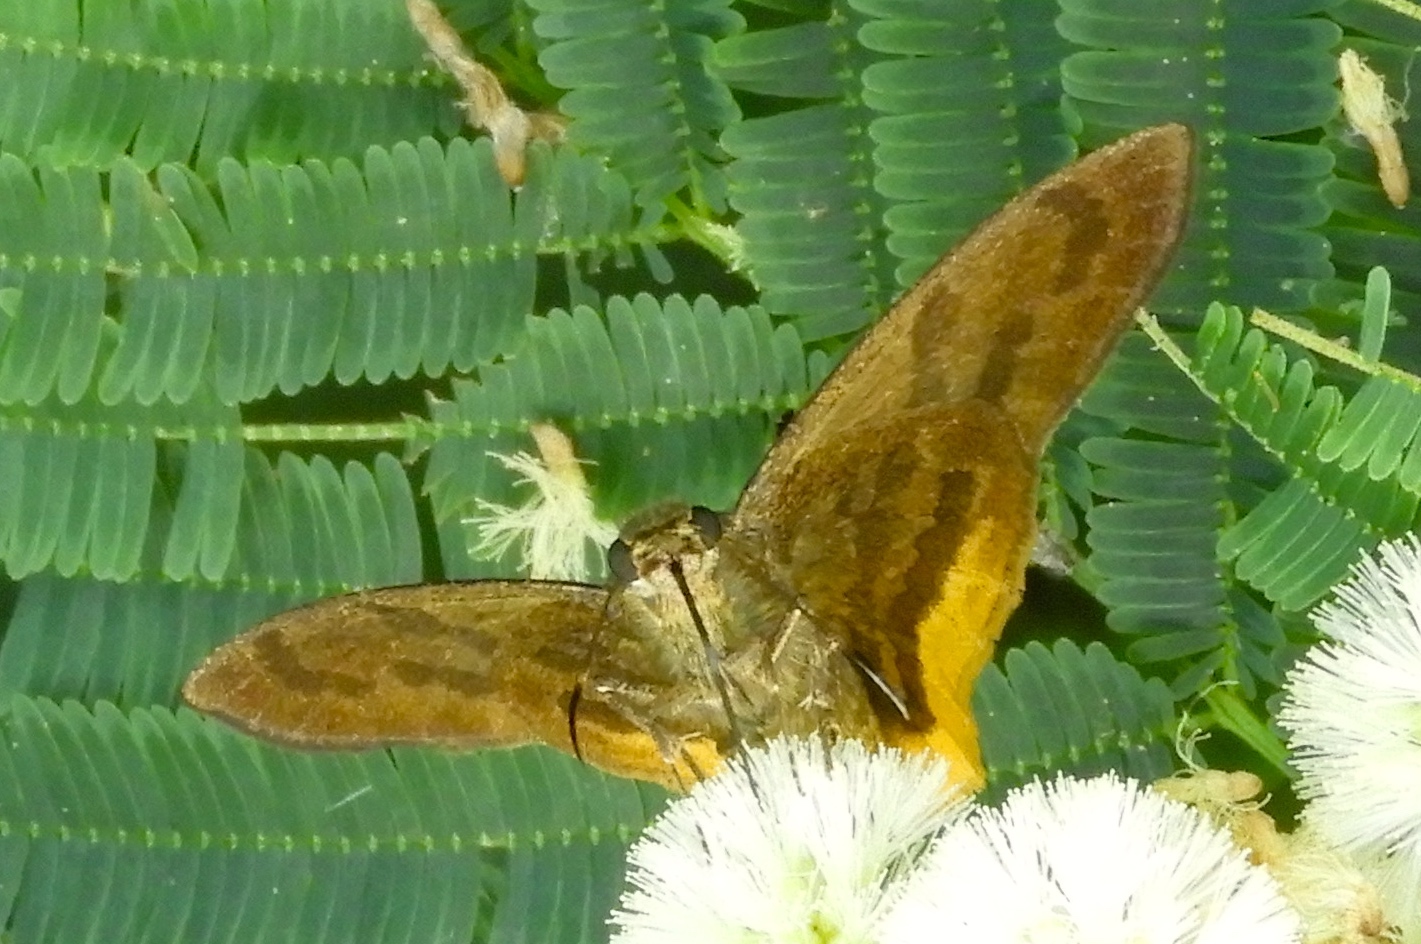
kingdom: Animalia
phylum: Arthropoda
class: Insecta
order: Lepidoptera
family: Hesperiidae
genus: Astraptes
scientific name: Astraptes
